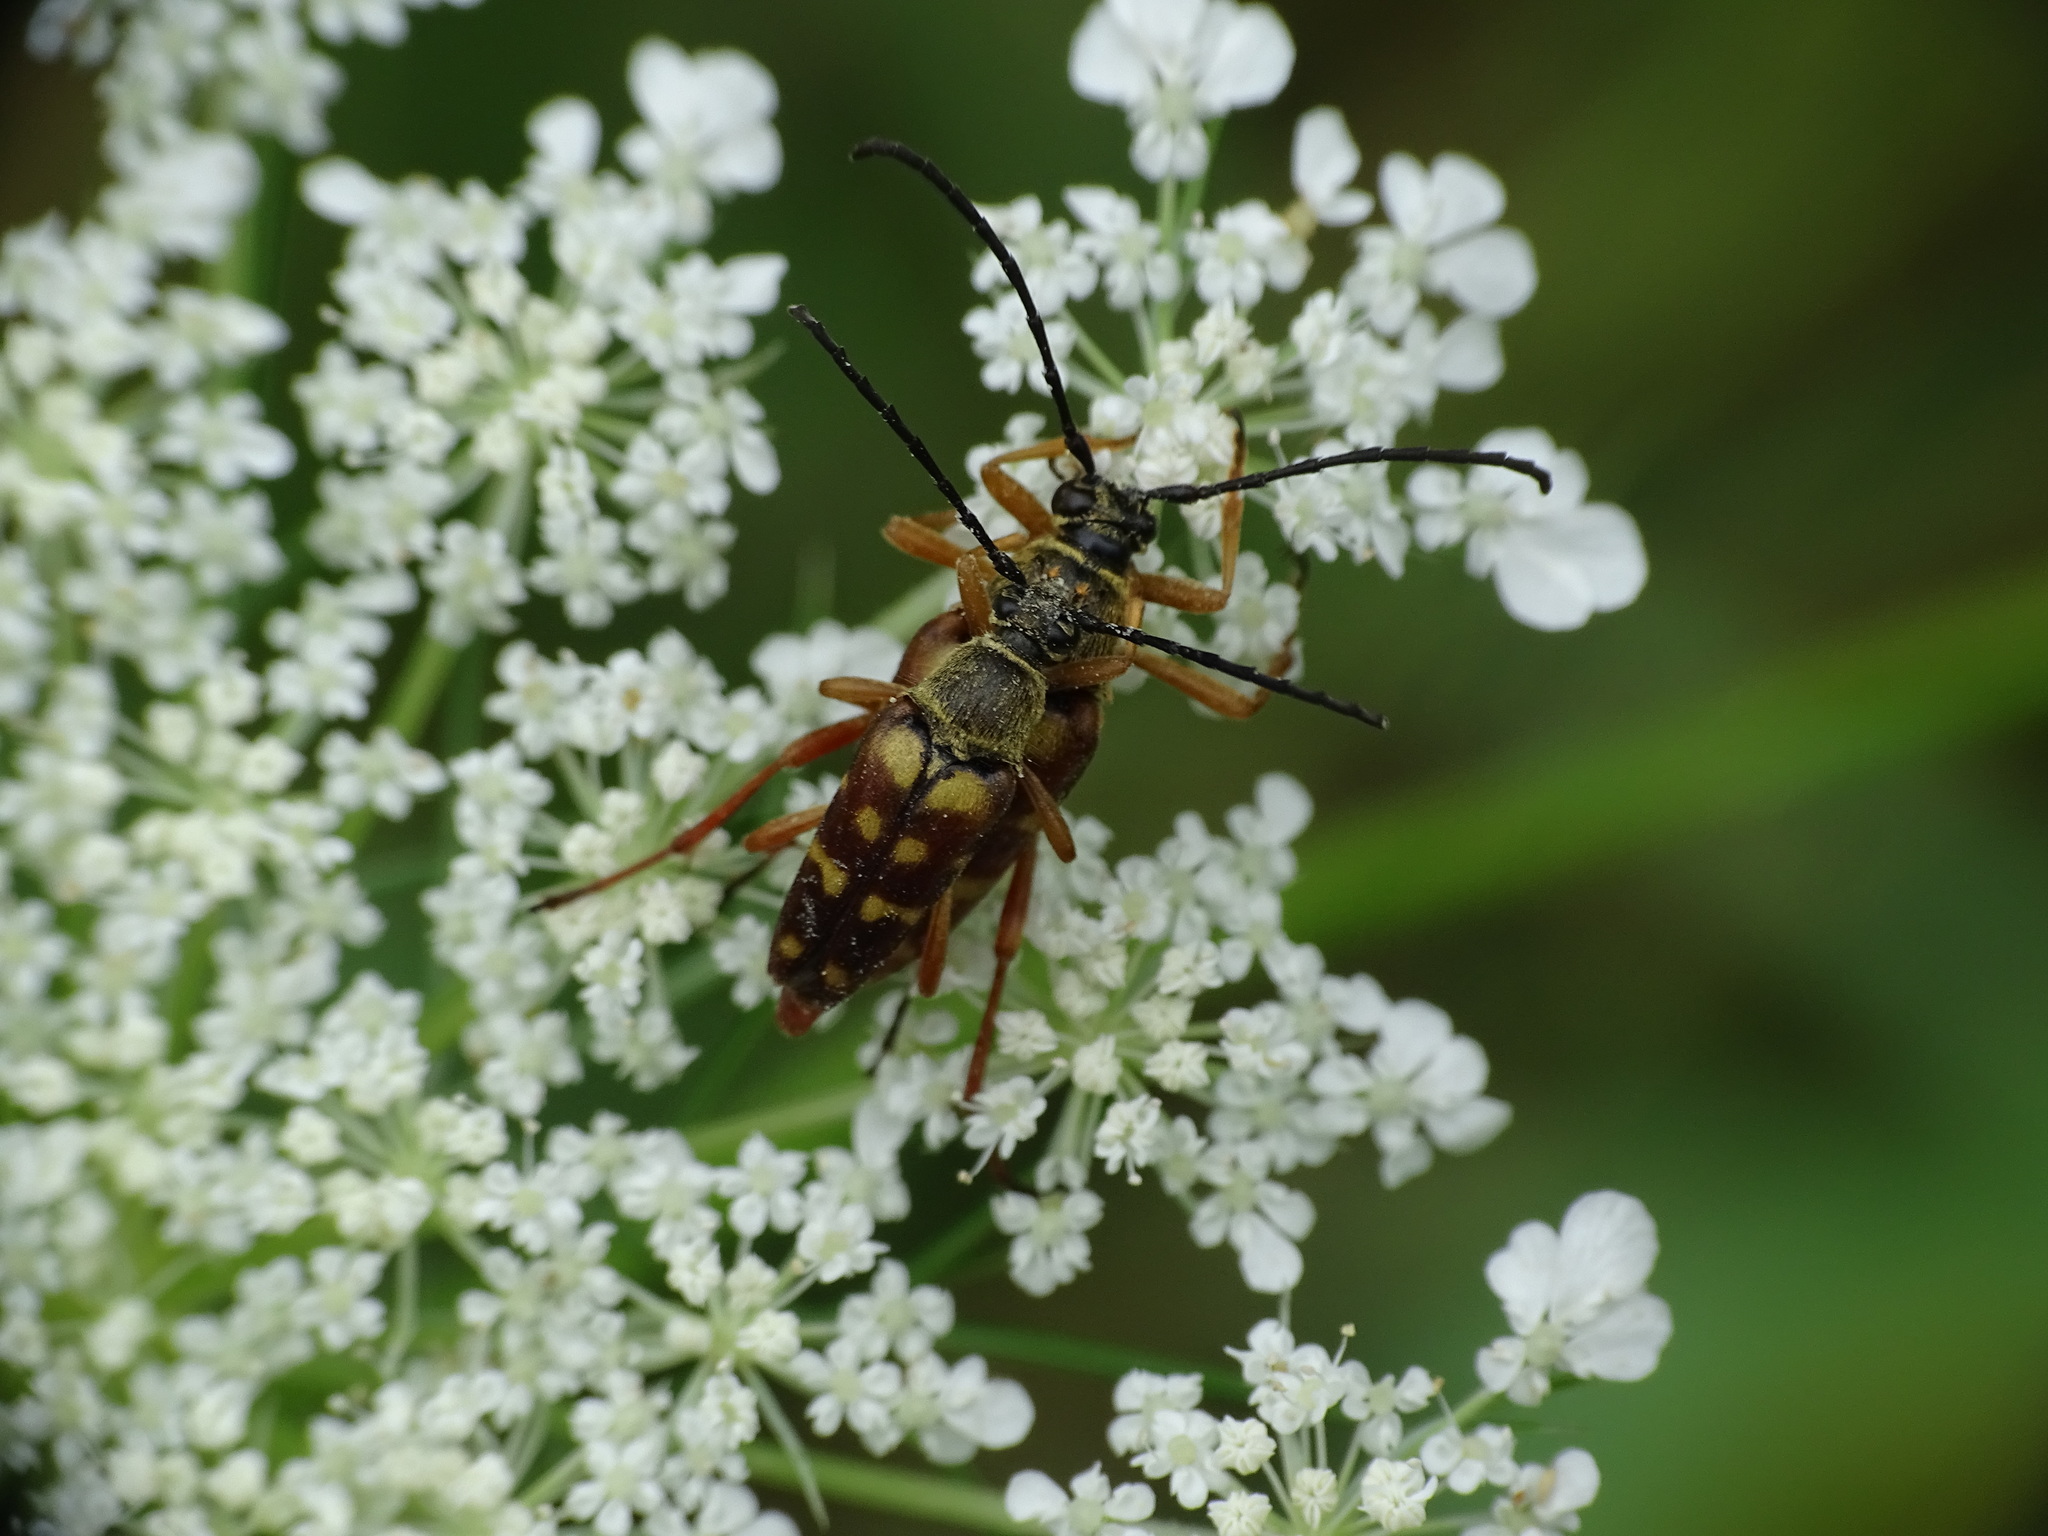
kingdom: Animalia
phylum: Arthropoda
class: Insecta
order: Coleoptera
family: Cerambycidae
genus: Typocerus
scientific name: Typocerus velutinus
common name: Banded longhorn beetle
